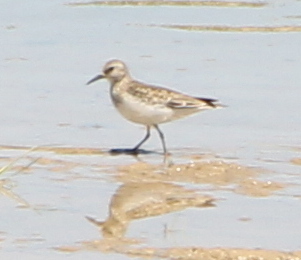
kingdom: Animalia
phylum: Chordata
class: Aves
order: Charadriiformes
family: Scolopacidae
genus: Calidris
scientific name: Calidris temminckii
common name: Temminck's stint
